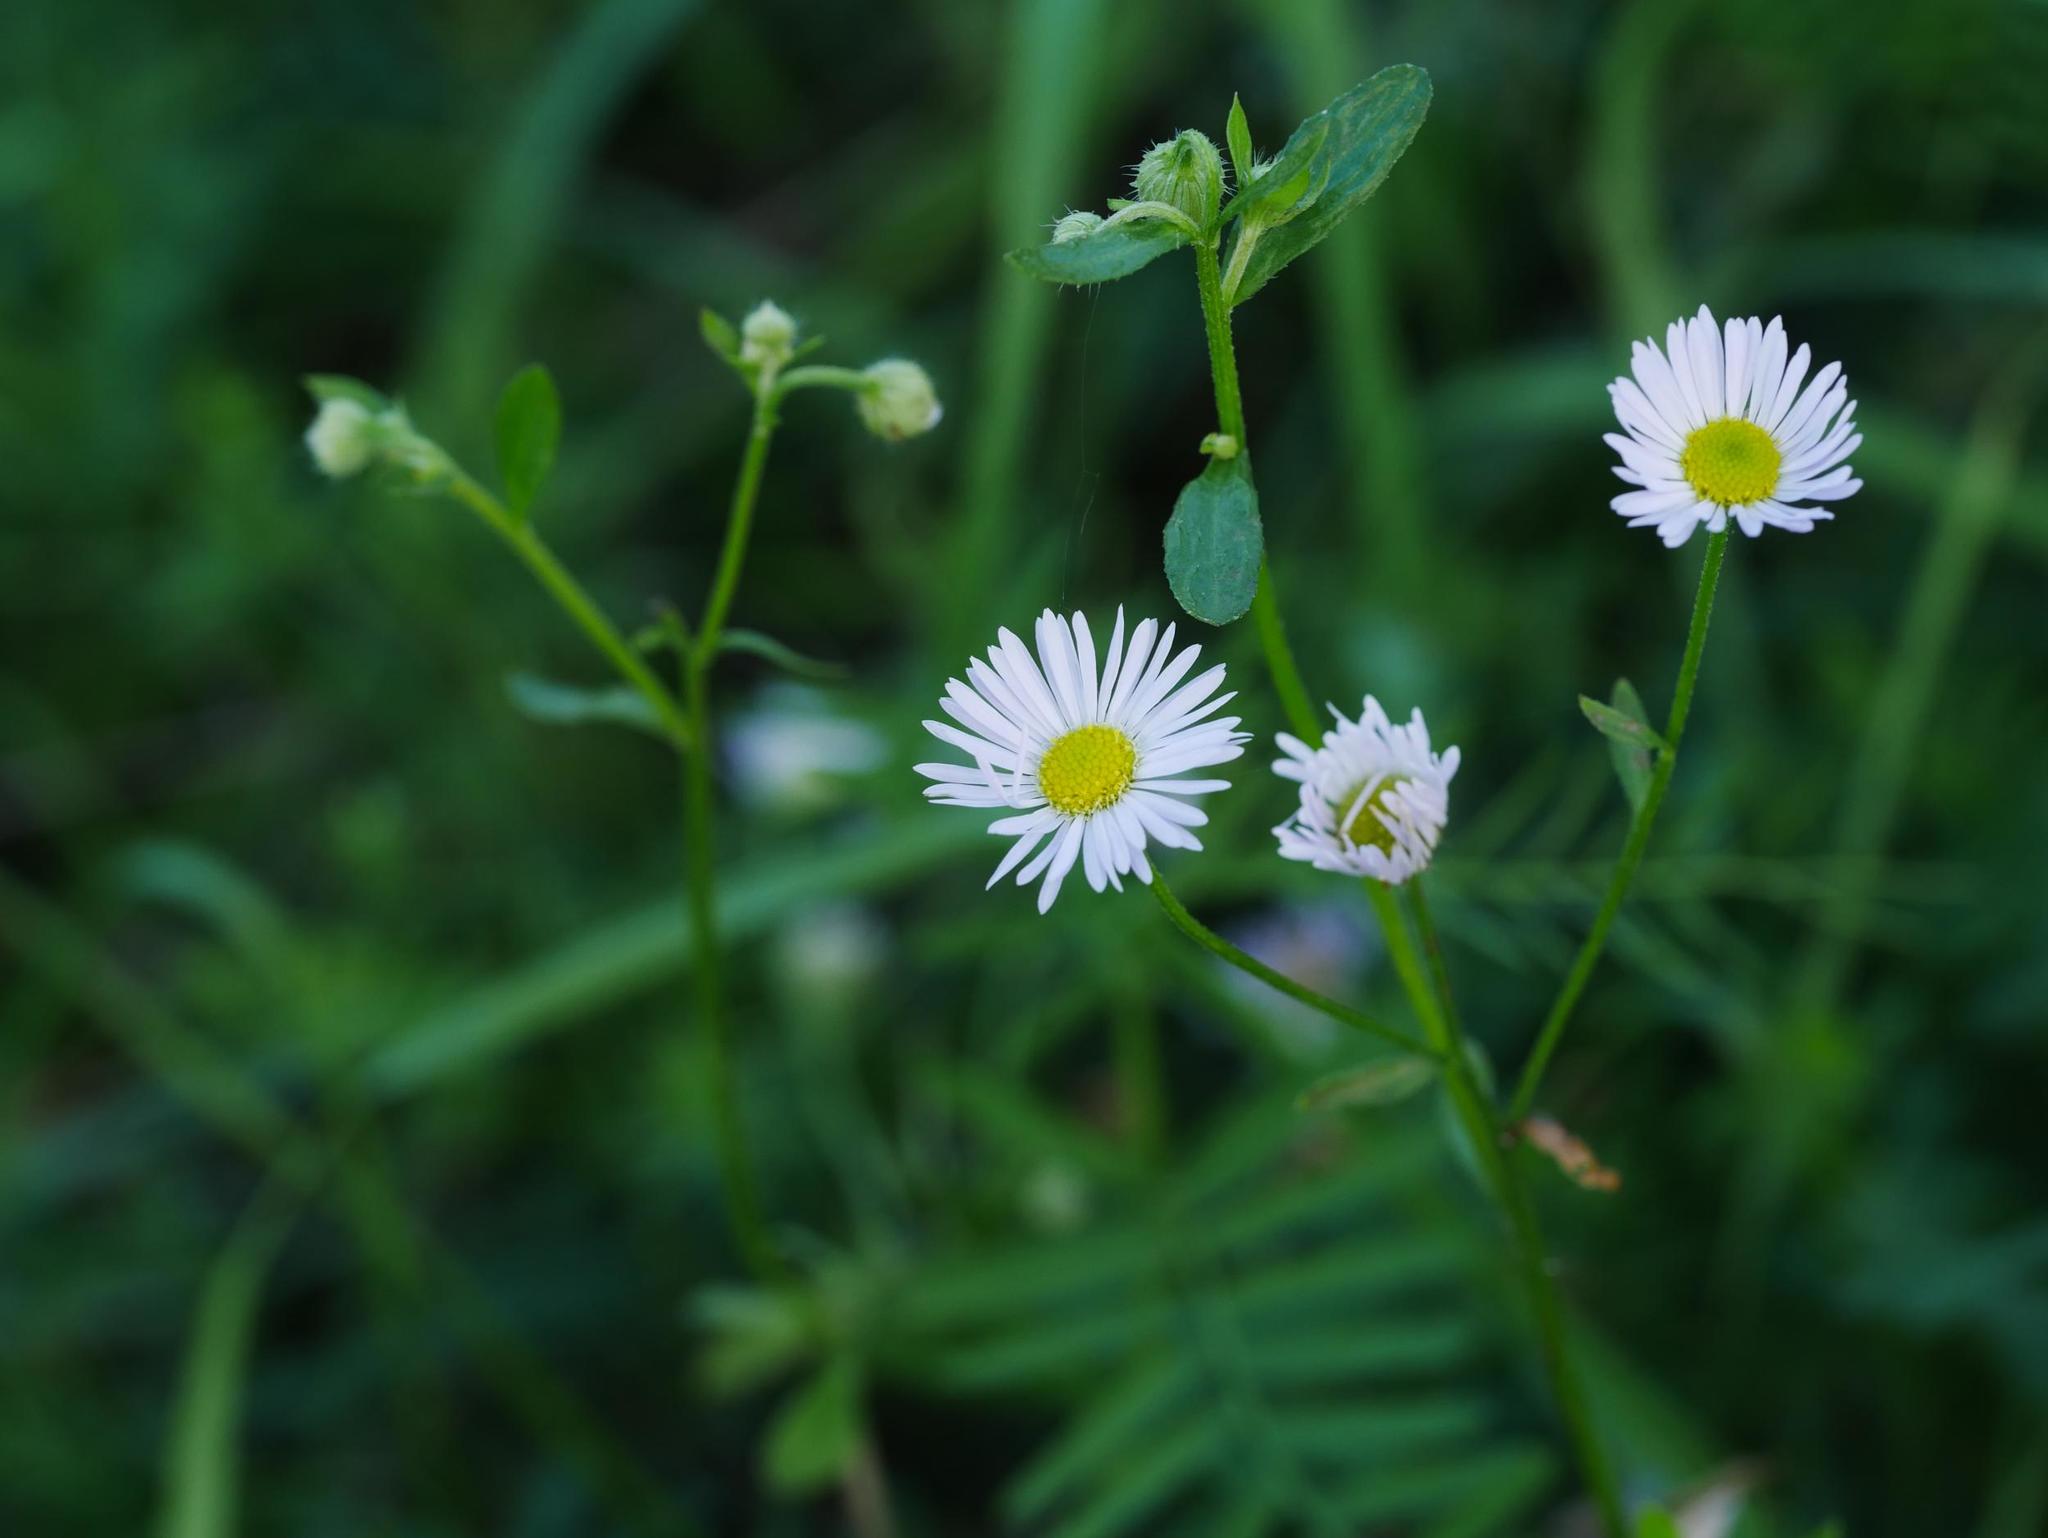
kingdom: Plantae
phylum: Tracheophyta
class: Magnoliopsida
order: Asterales
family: Asteraceae
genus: Erigeron
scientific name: Erigeron annuus
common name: Tall fleabane
